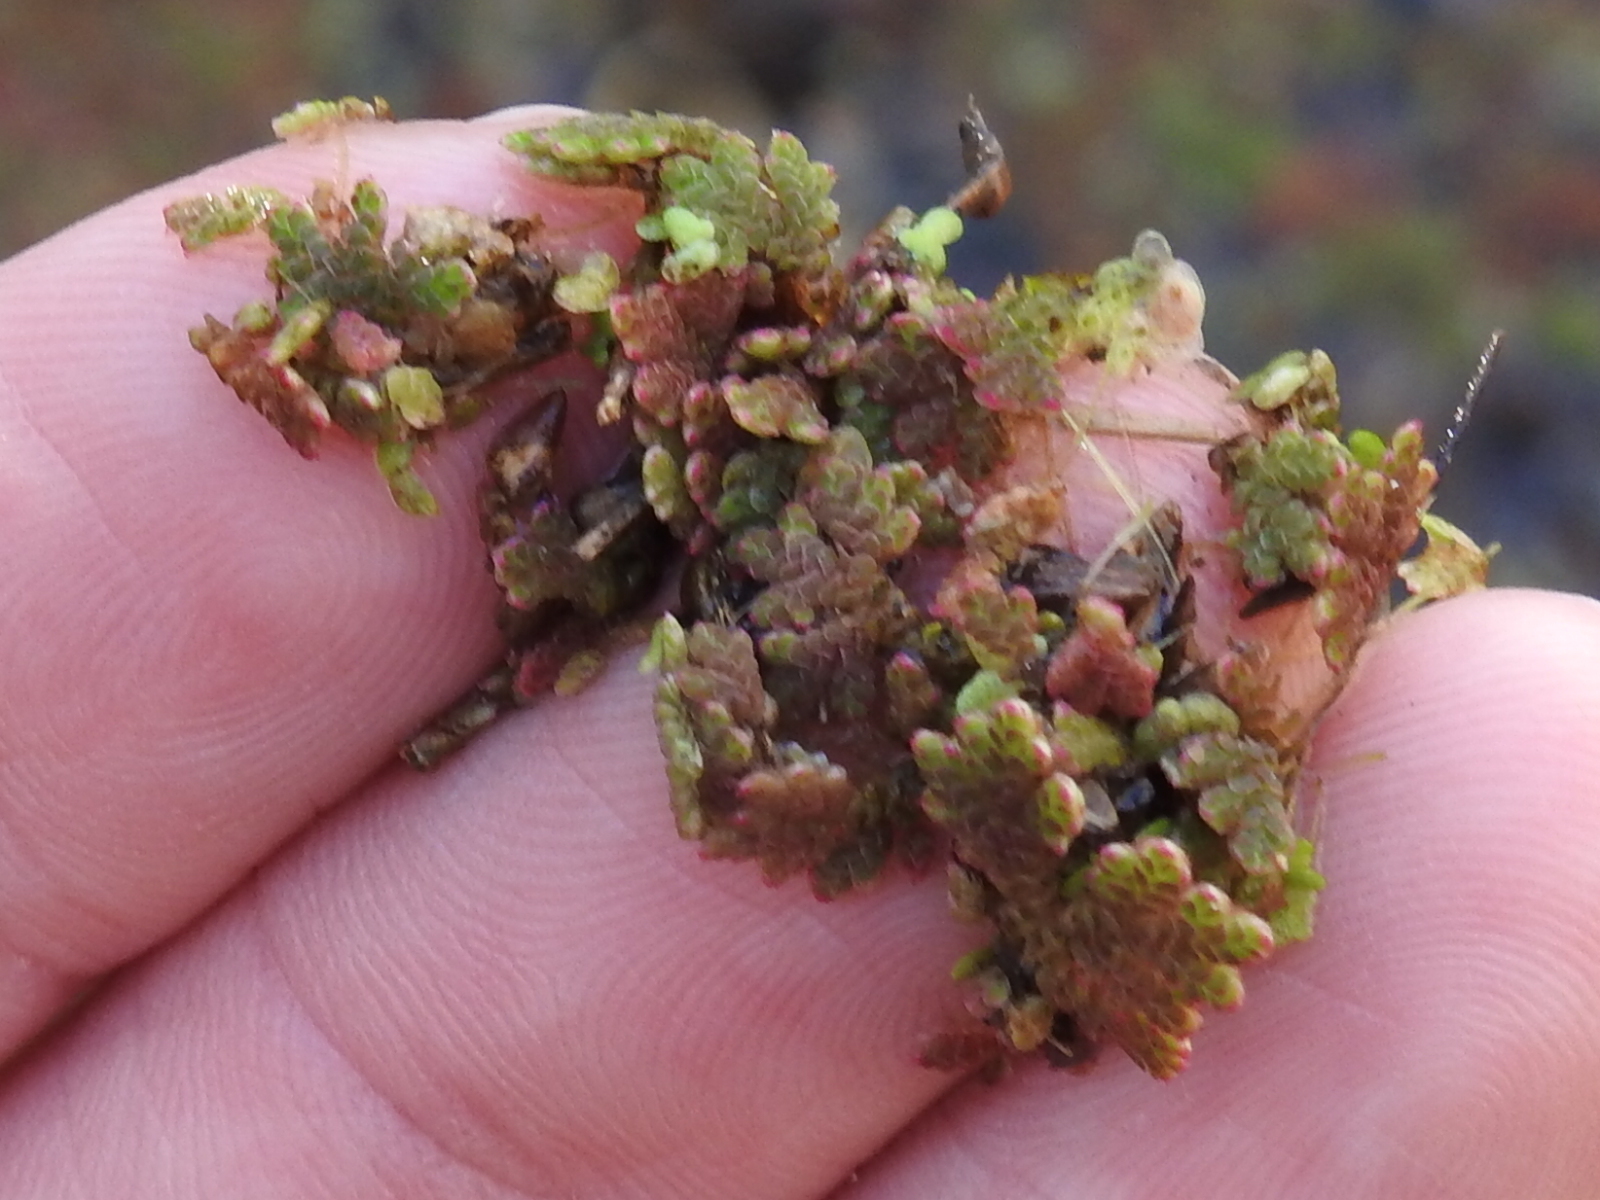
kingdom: Plantae
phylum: Tracheophyta
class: Polypodiopsida
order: Salviniales
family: Salviniaceae
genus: Azolla
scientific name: Azolla caroliniana
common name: Carolina mosquitofern
